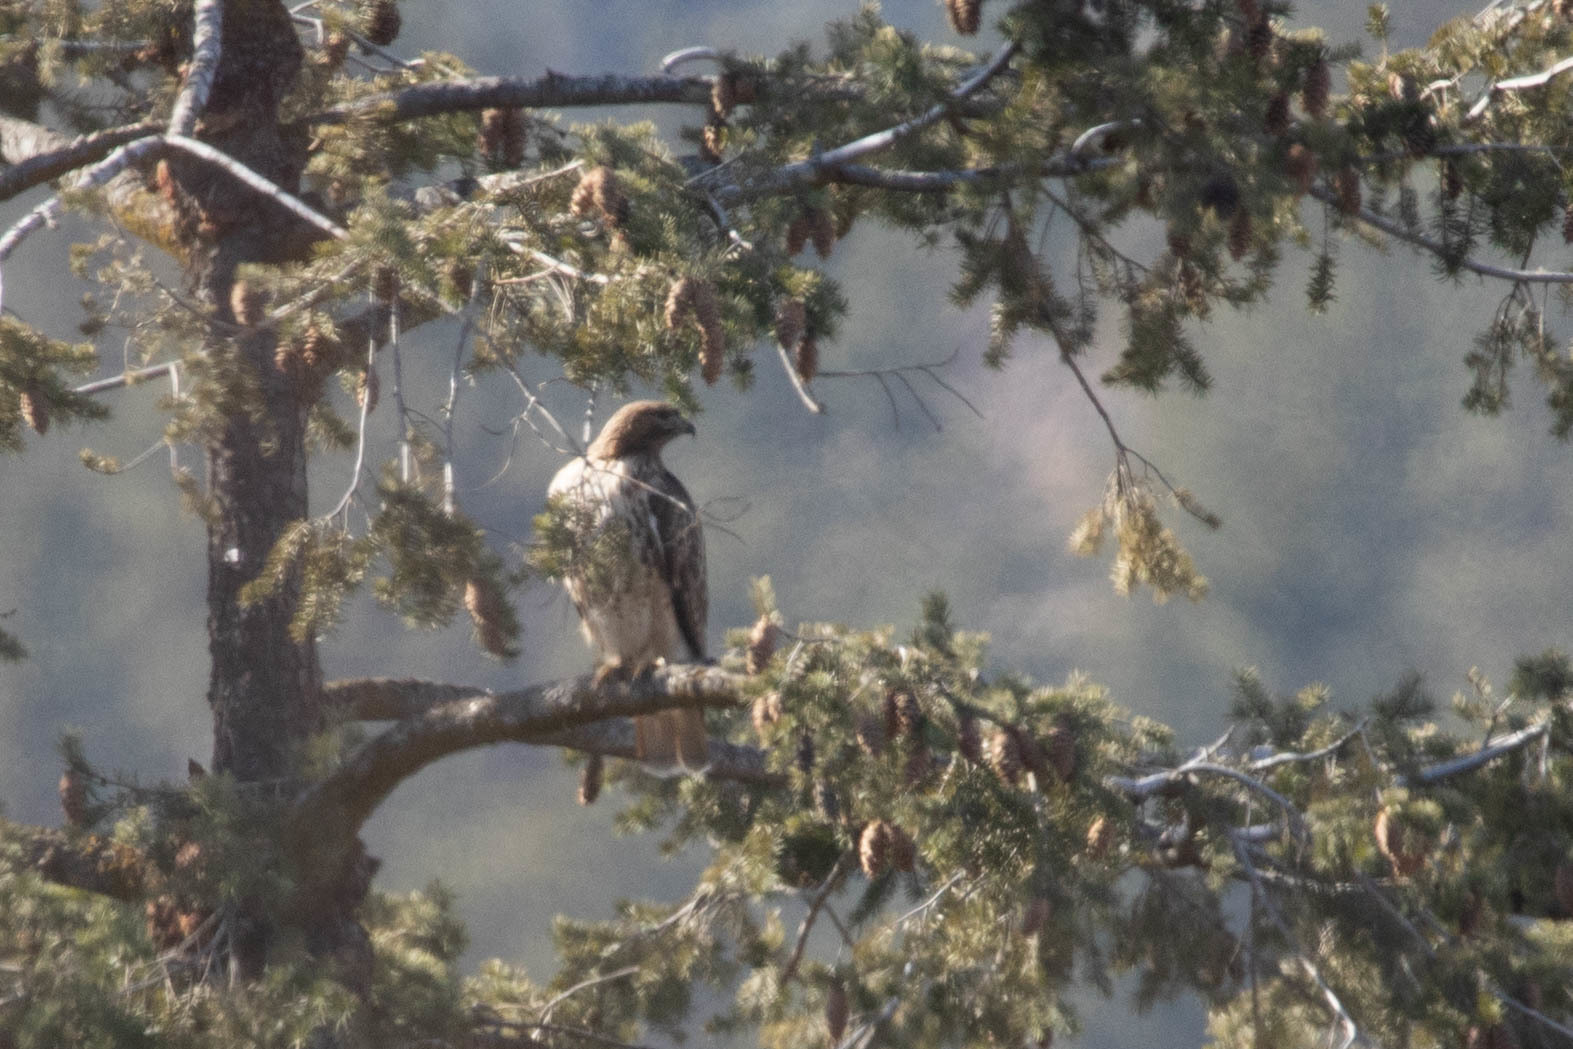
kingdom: Animalia
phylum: Chordata
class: Aves
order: Accipitriformes
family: Accipitridae
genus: Buteo
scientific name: Buteo jamaicensis
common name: Red-tailed hawk
